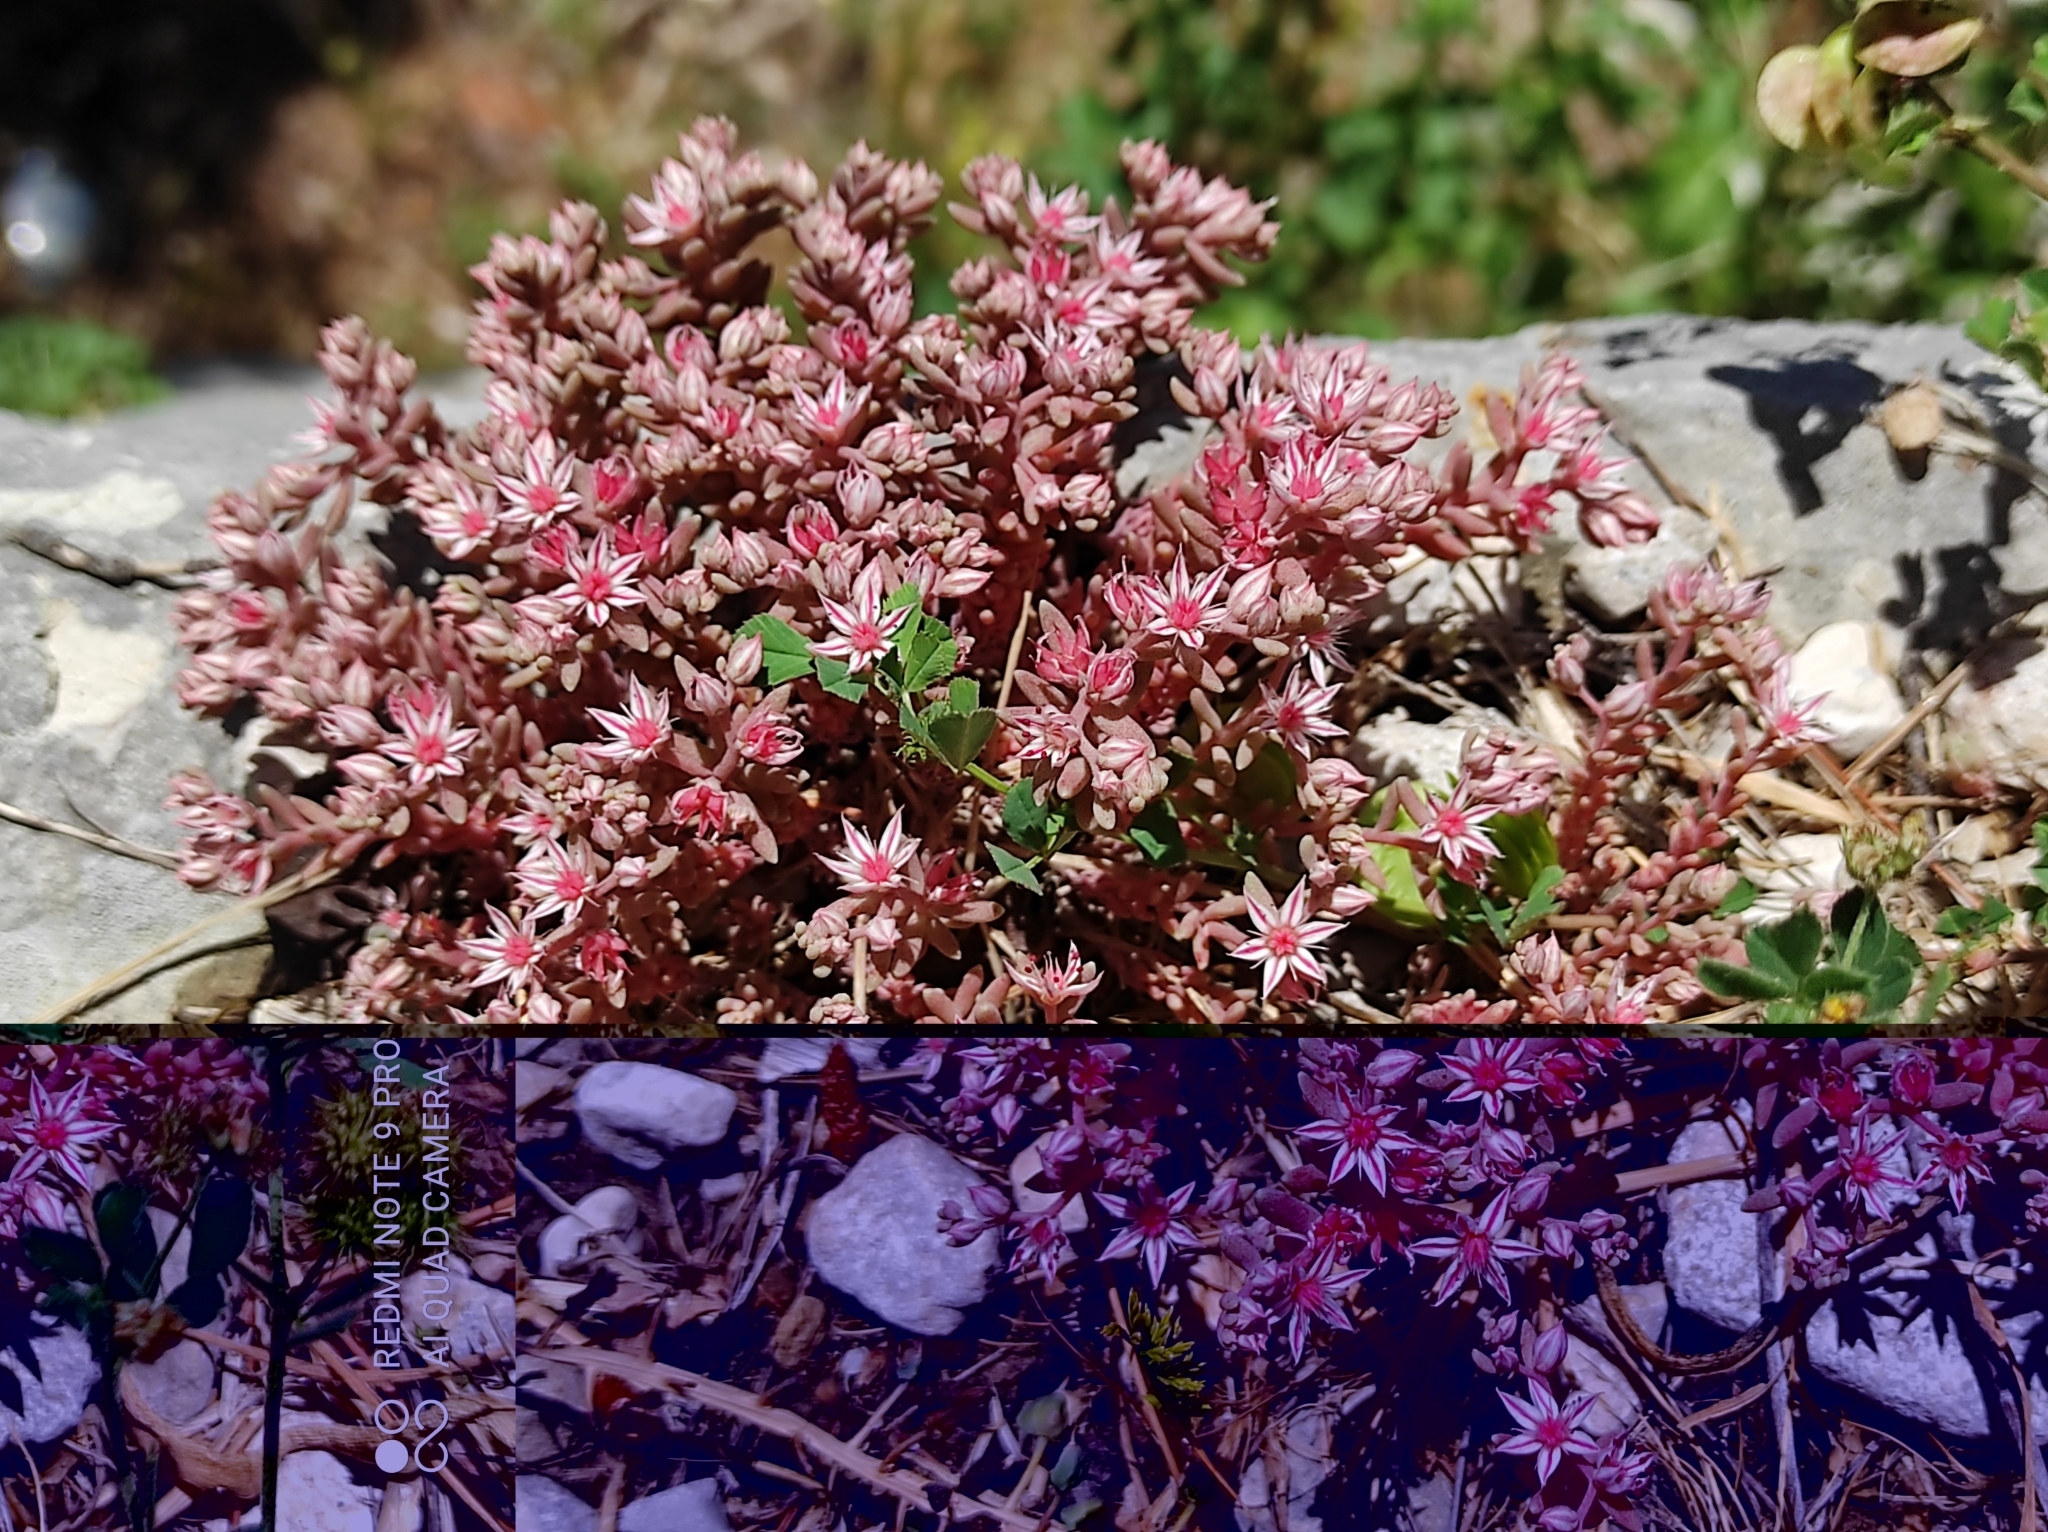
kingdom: Plantae
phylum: Tracheophyta
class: Magnoliopsida
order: Saxifragales
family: Crassulaceae
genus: Sedum
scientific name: Sedum hispanicum
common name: Spanish stonecrop
